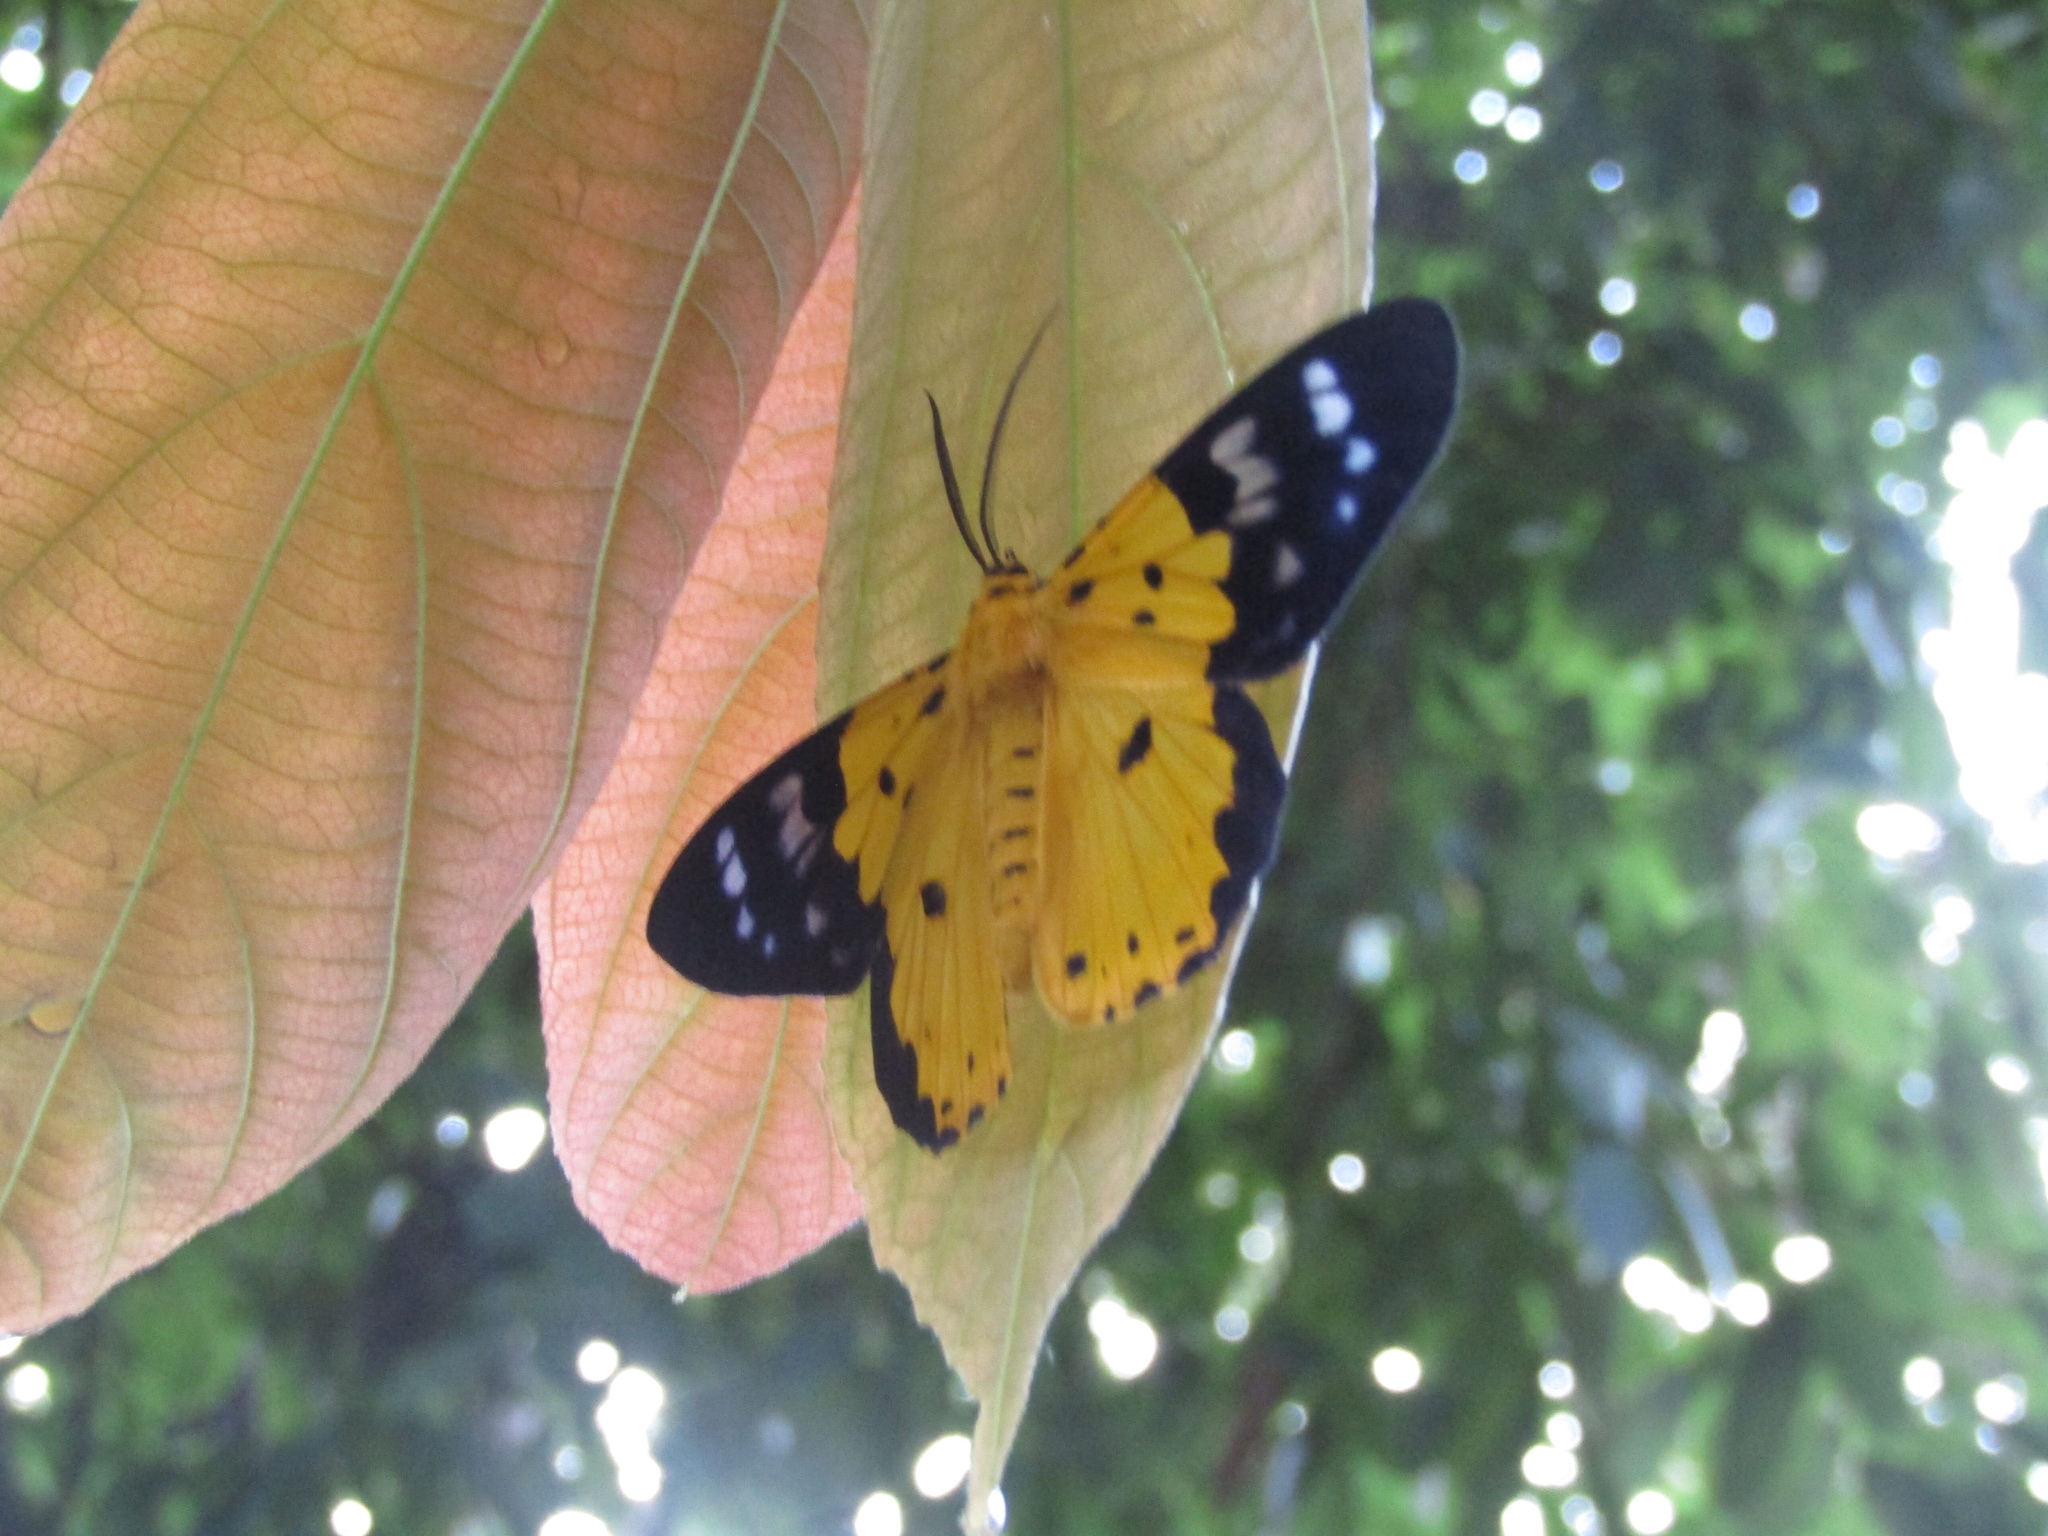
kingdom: Animalia
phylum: Arthropoda
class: Insecta
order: Lepidoptera
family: Geometridae
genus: Dysphania
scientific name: Dysphania sagana
